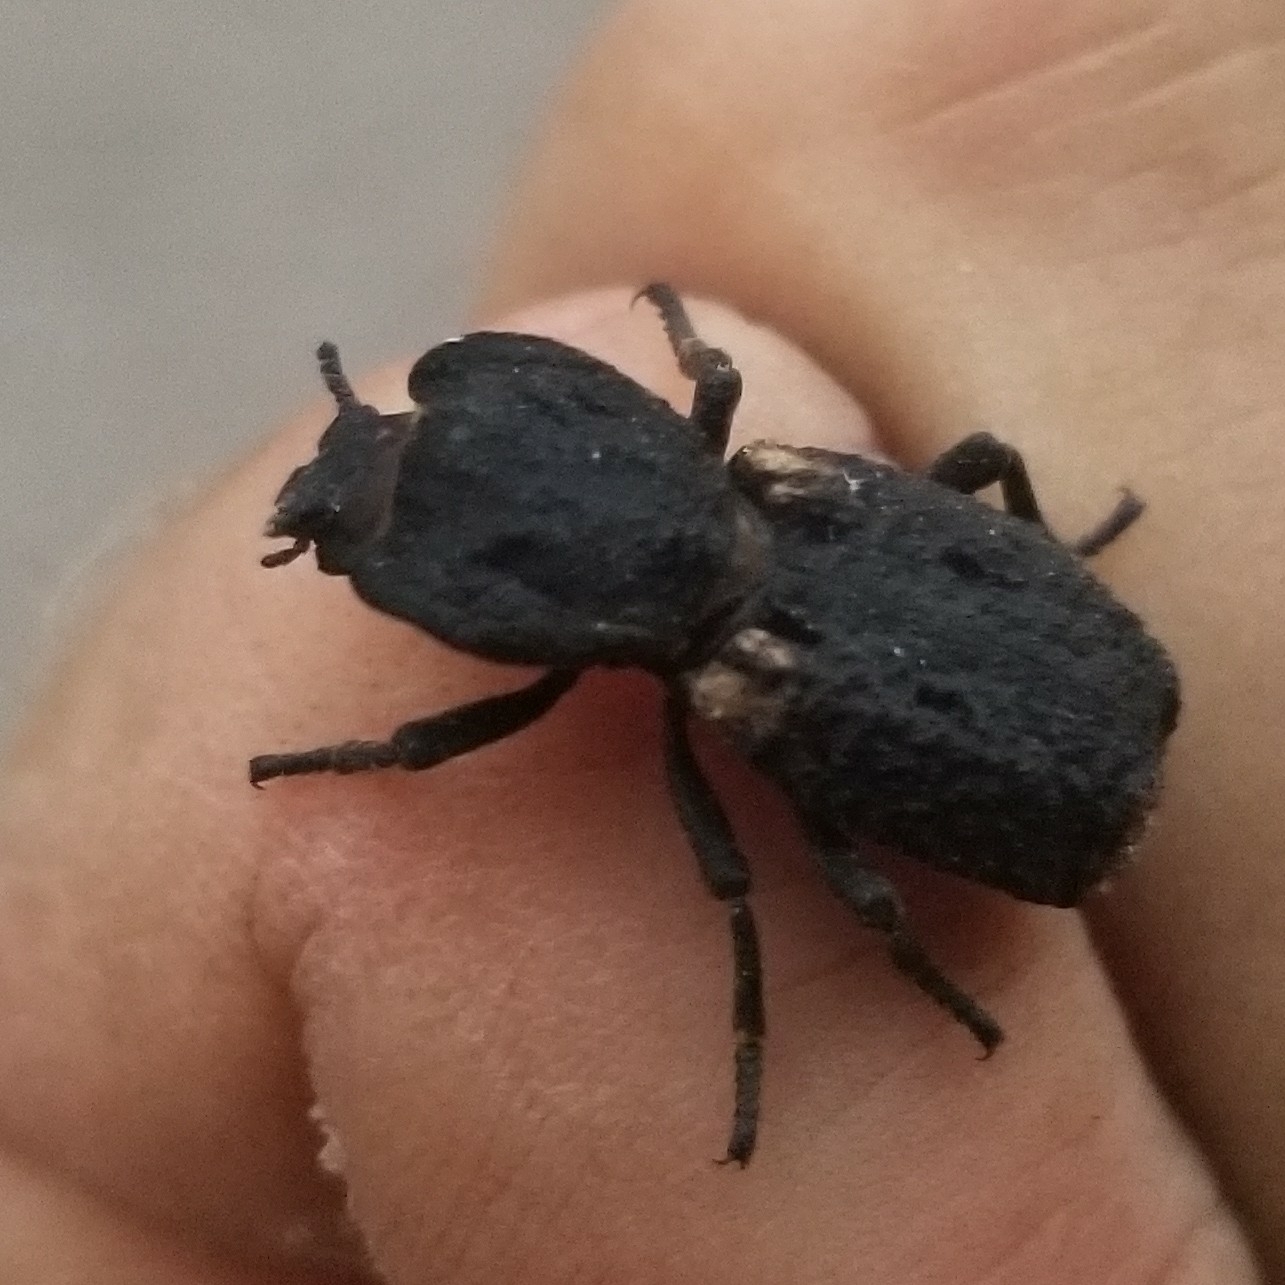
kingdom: Animalia
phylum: Arthropoda
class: Insecta
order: Coleoptera
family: Zopheridae
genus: Phloeodes
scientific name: Phloeodes diabolicus
